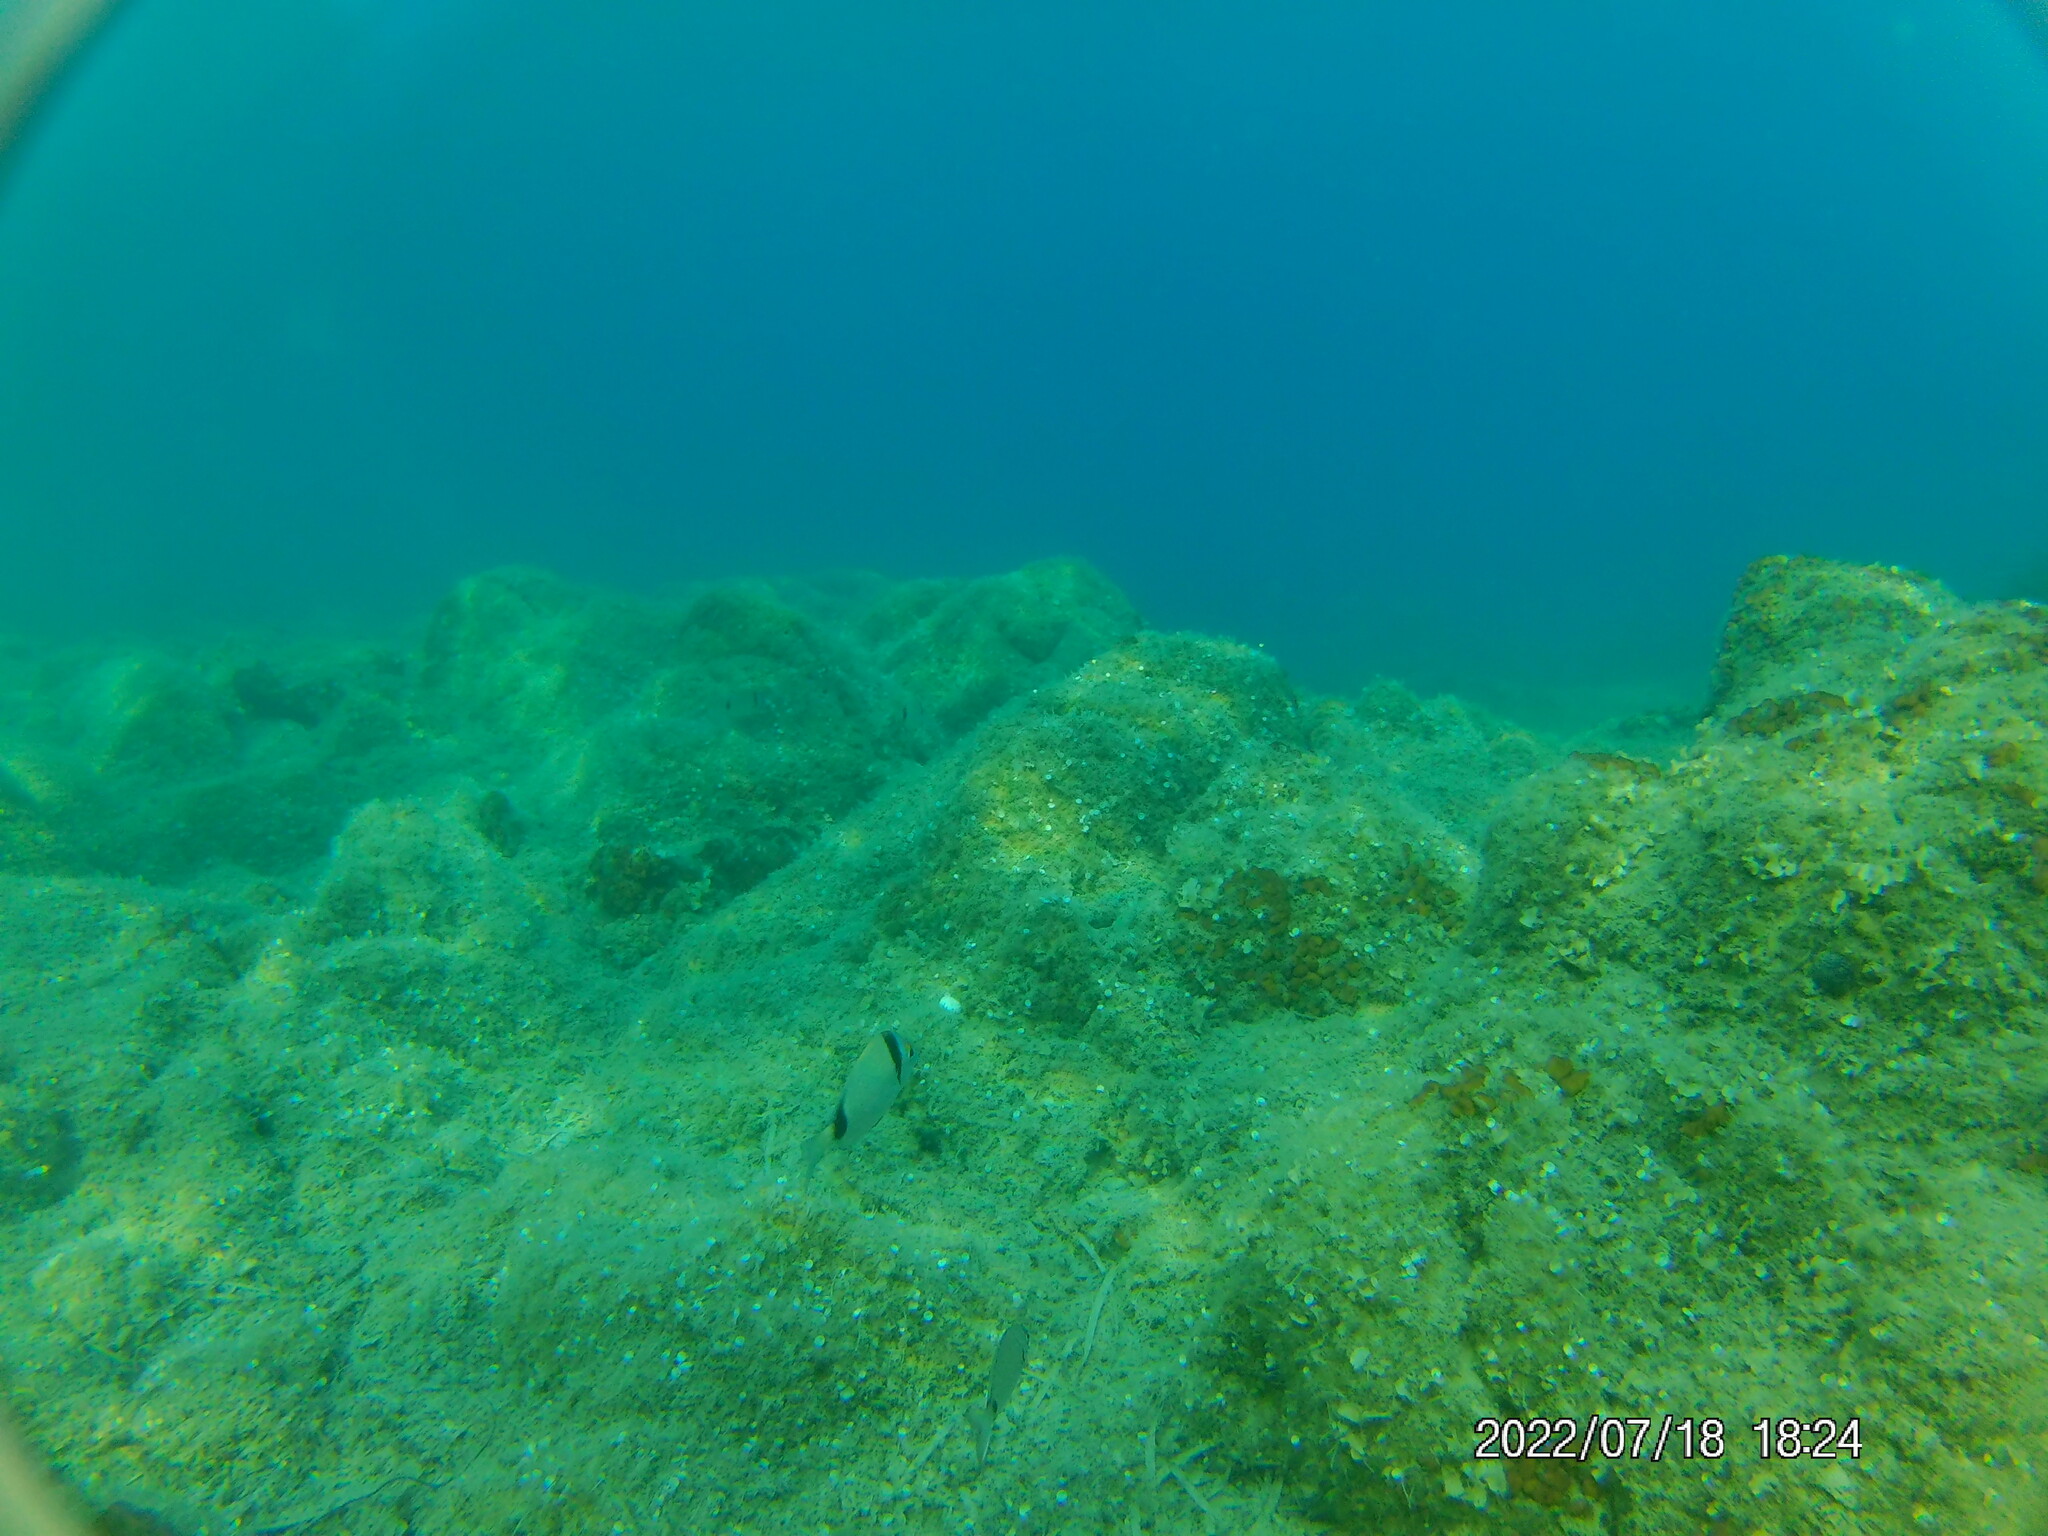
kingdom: Animalia
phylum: Chordata
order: Perciformes
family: Sparidae
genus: Diplodus
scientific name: Diplodus vulgaris
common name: Common two-banded seabream
